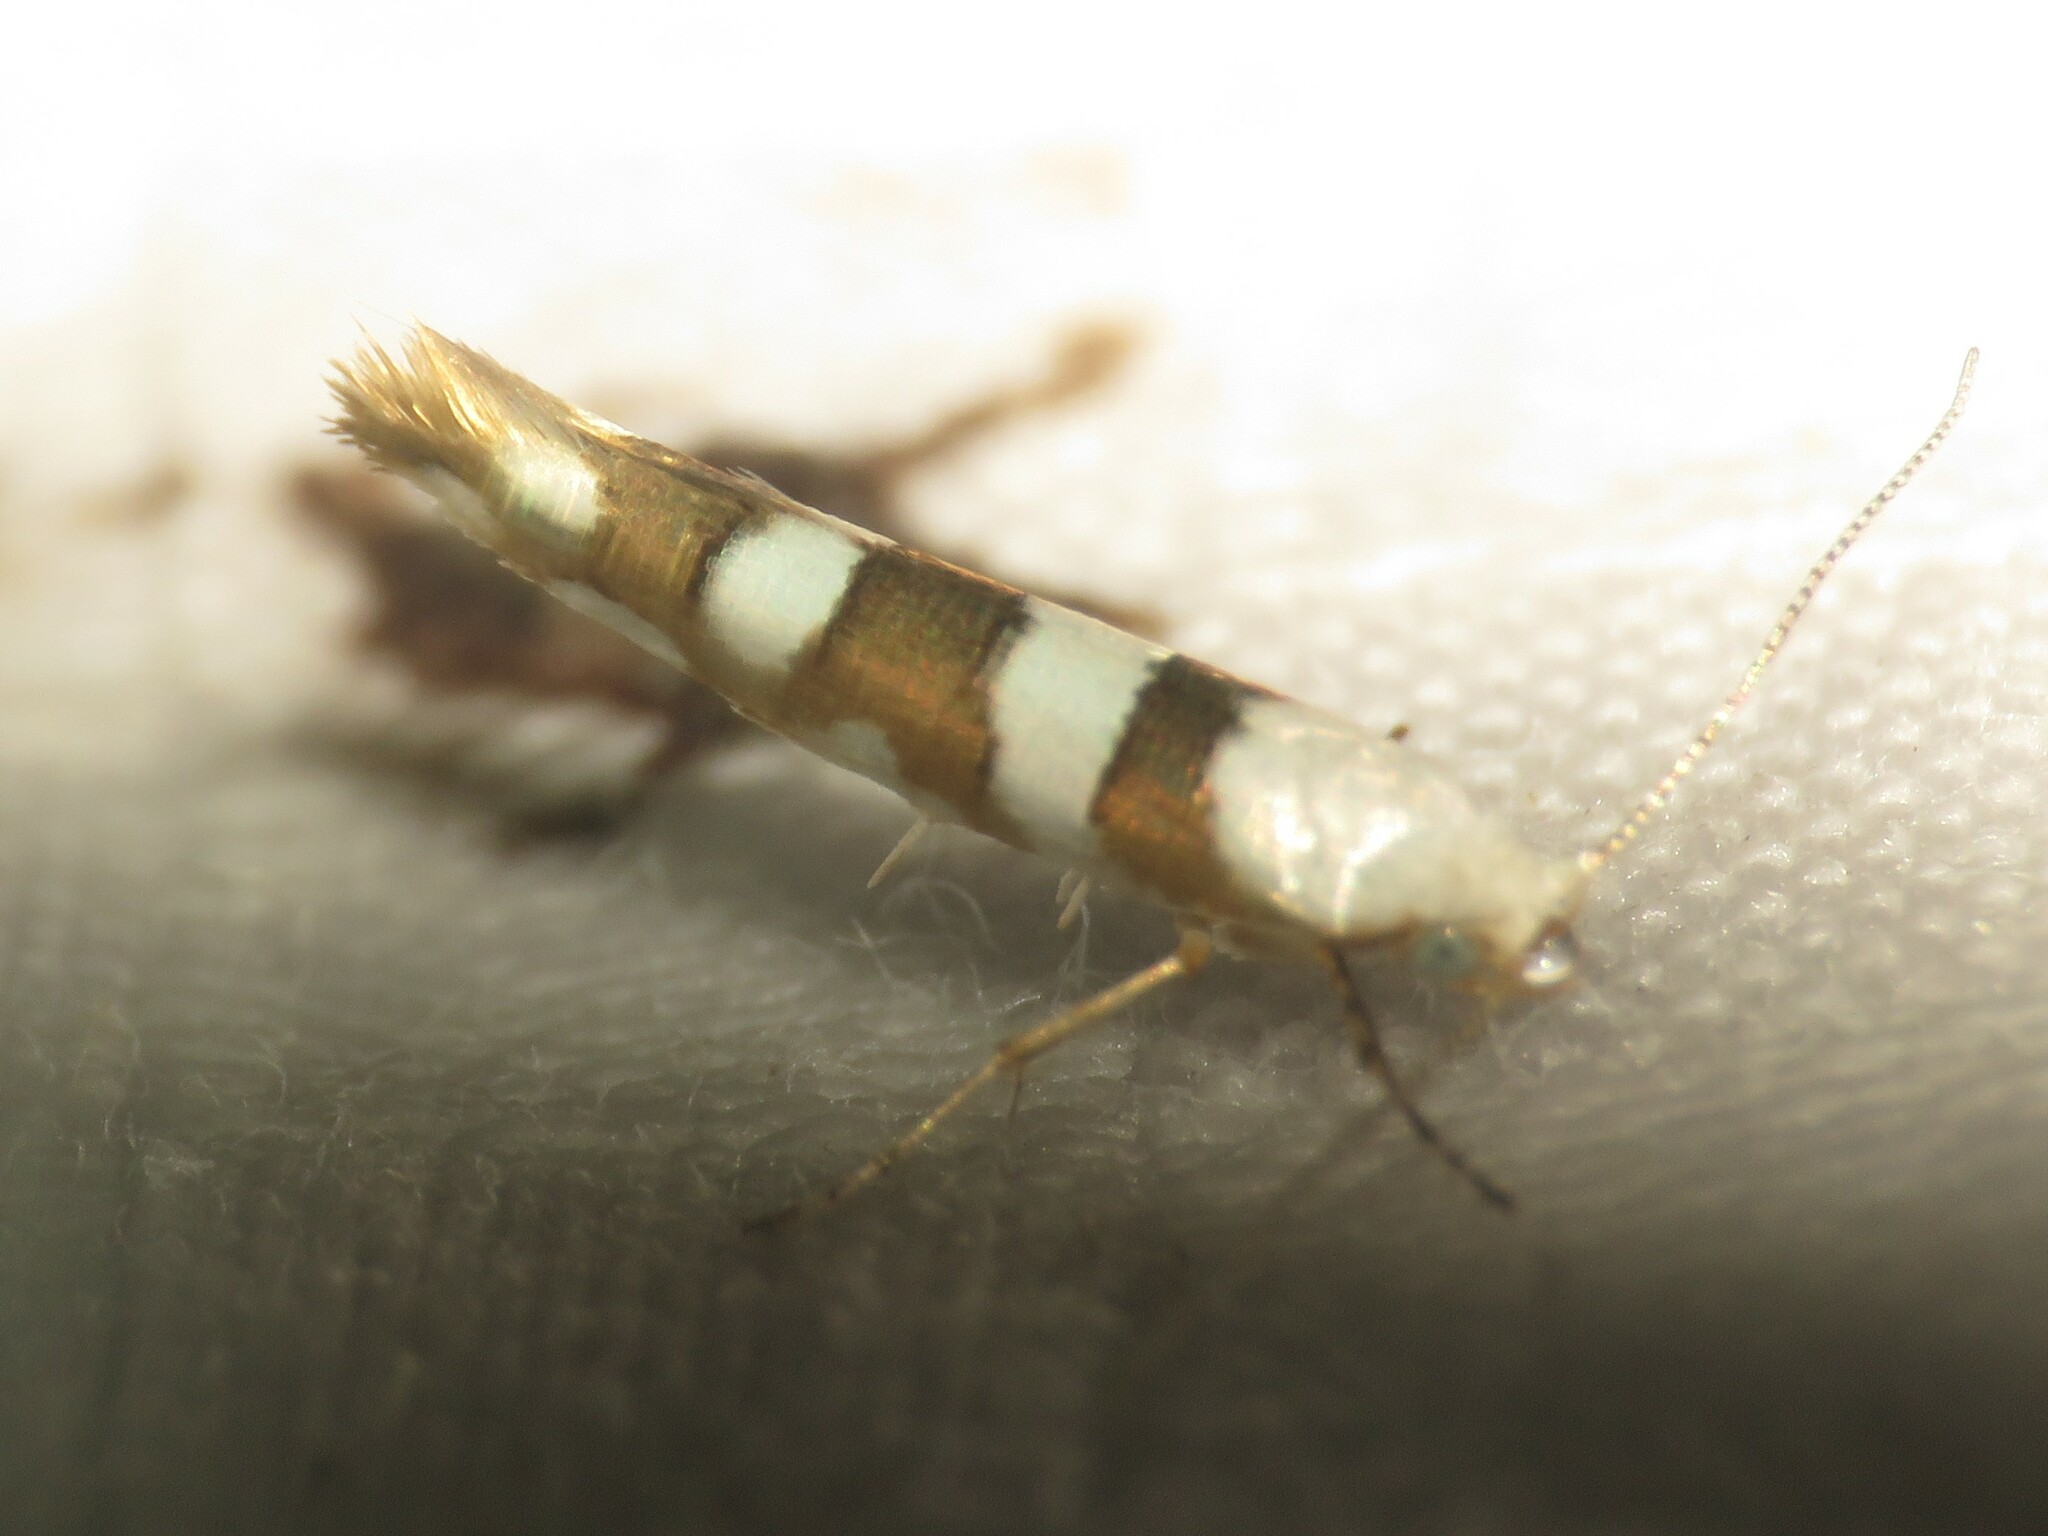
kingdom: Animalia
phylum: Arthropoda
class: Insecta
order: Lepidoptera
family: Argyresthiidae
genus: Argyresthia
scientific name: Argyresthia calliphanes
